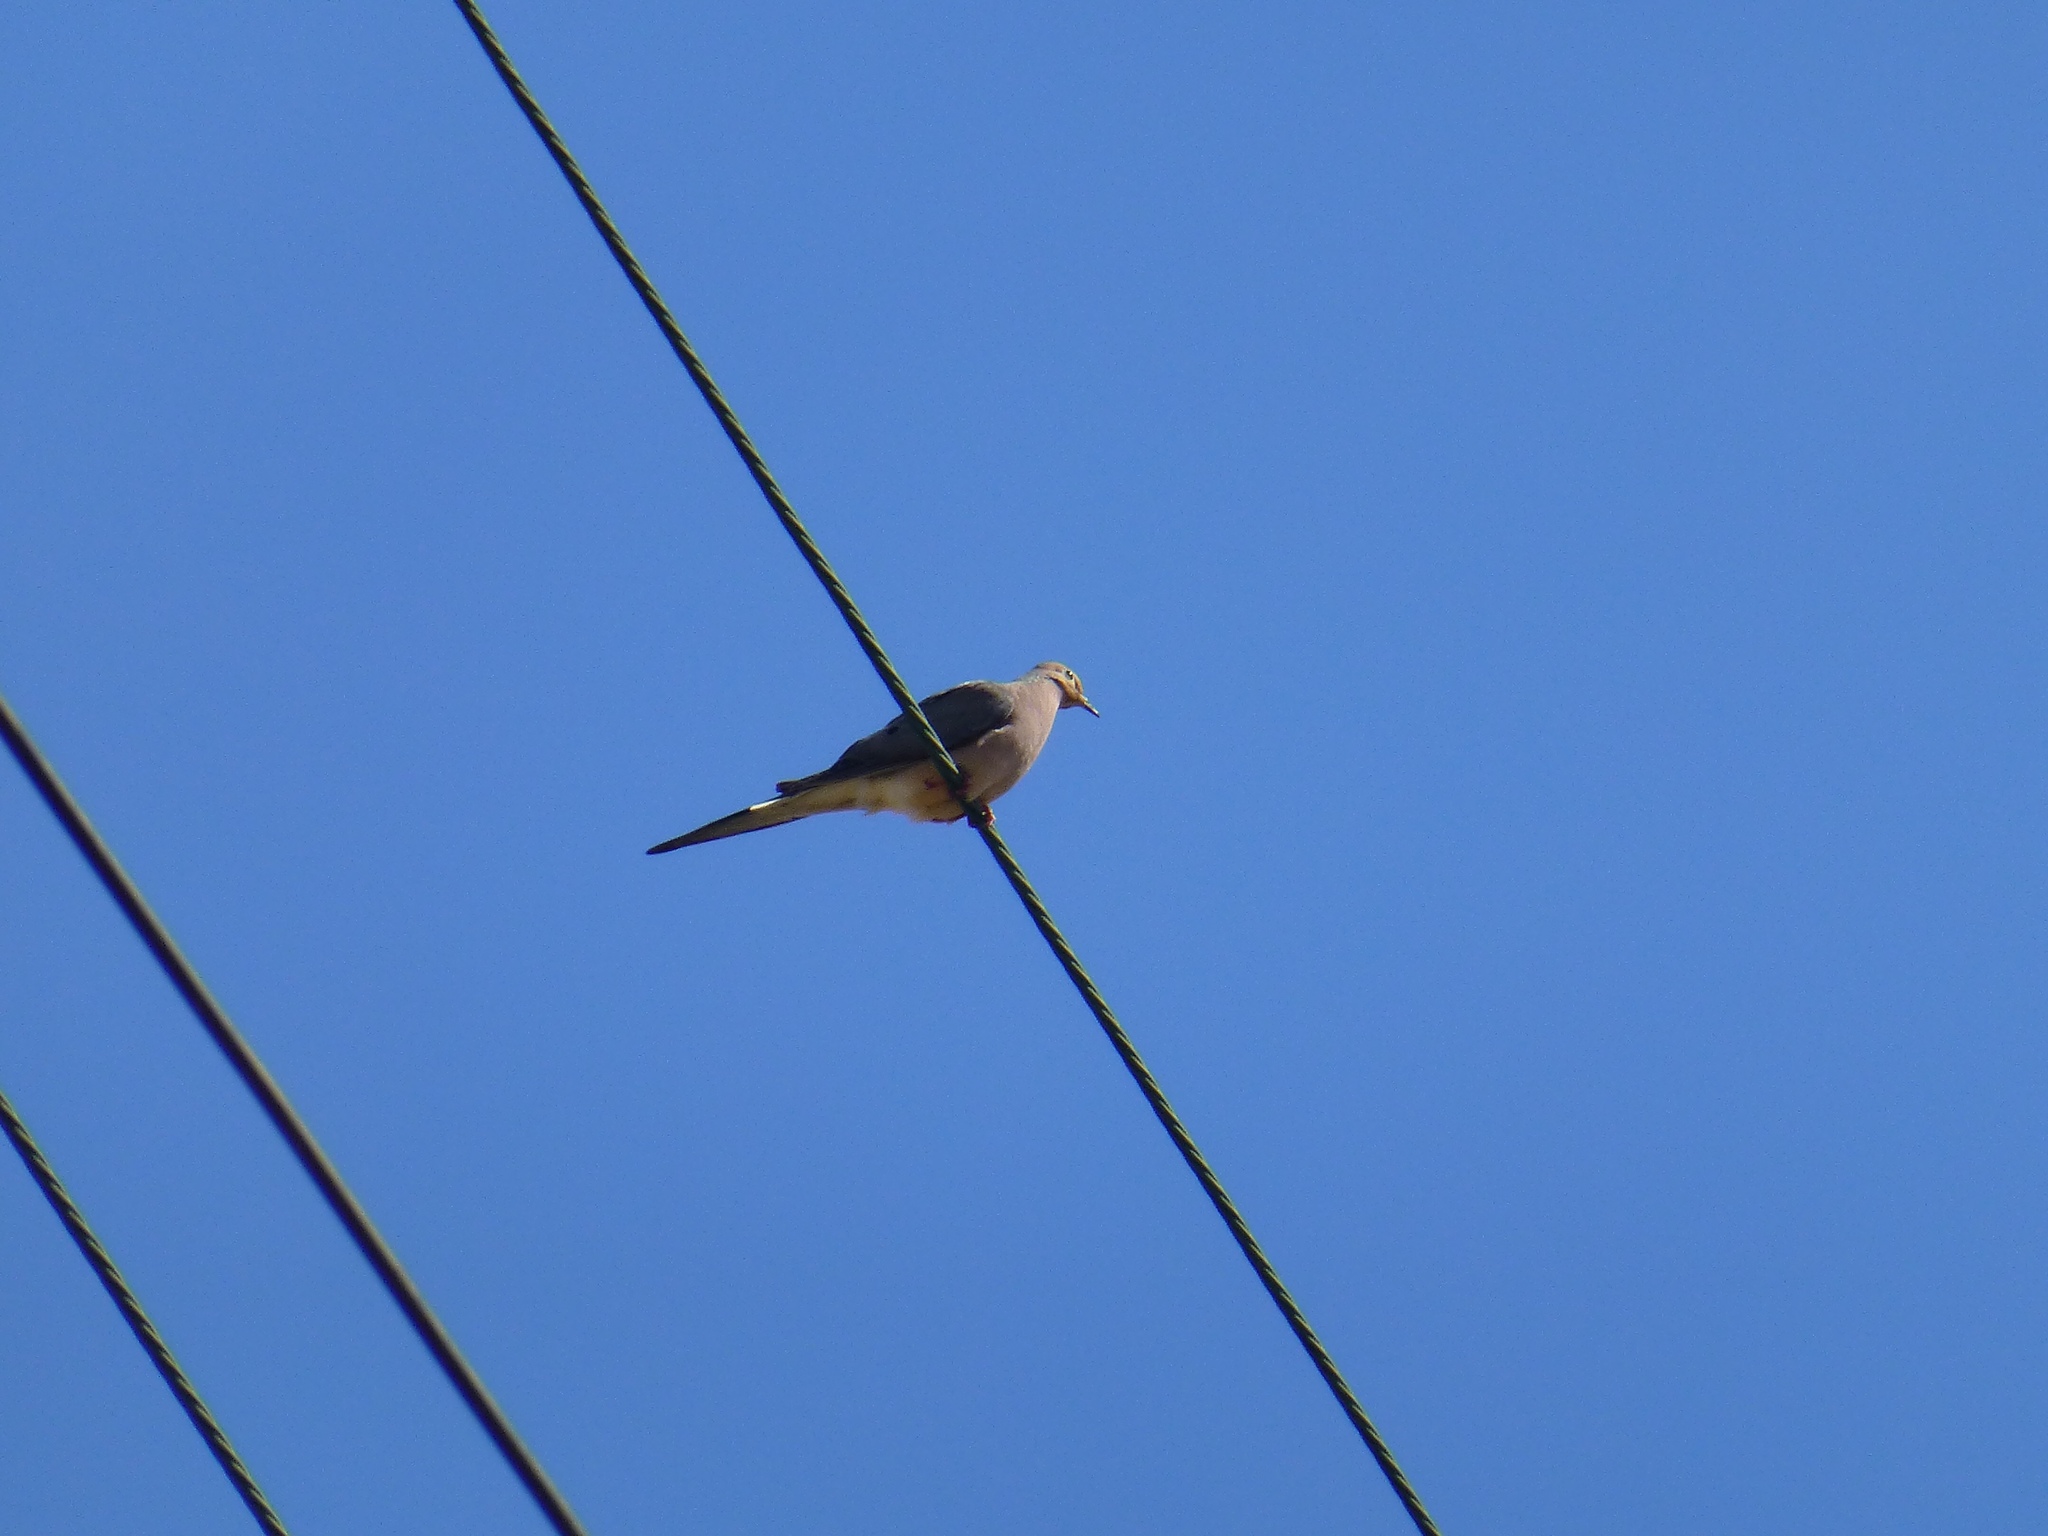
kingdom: Animalia
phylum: Chordata
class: Aves
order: Columbiformes
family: Columbidae
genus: Zenaida
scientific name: Zenaida macroura
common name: Mourning dove
